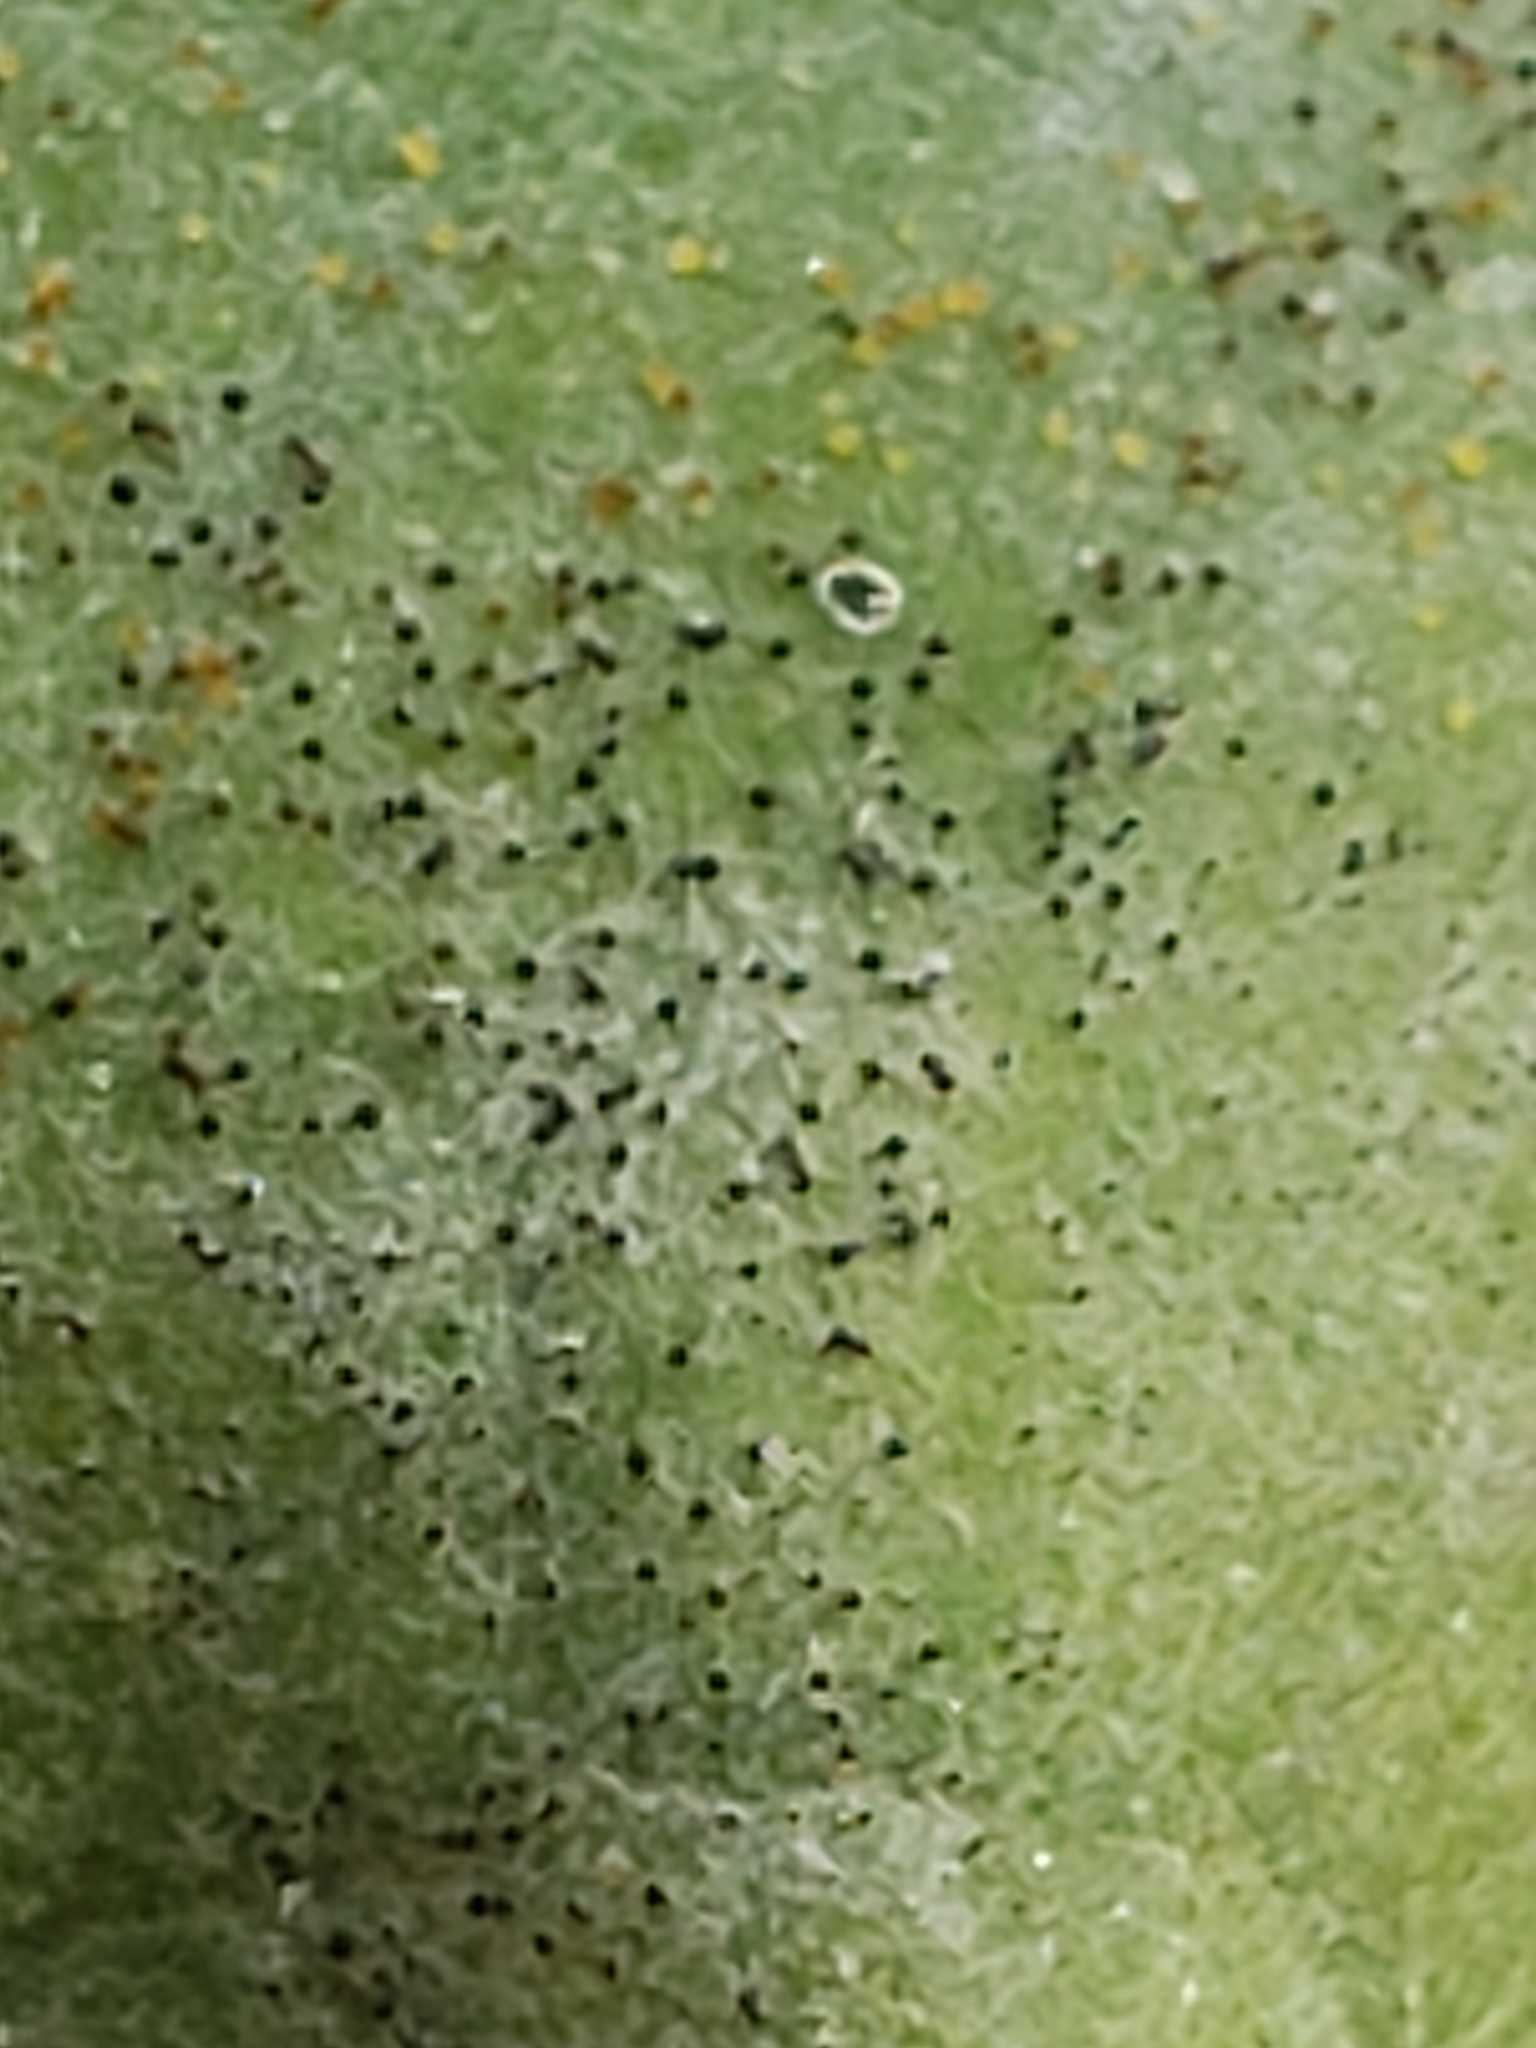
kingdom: Fungi
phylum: Ascomycota
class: Leotiomycetes
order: Helotiales
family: Erysiphaceae
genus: Erysiphe
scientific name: Erysiphe elevata
